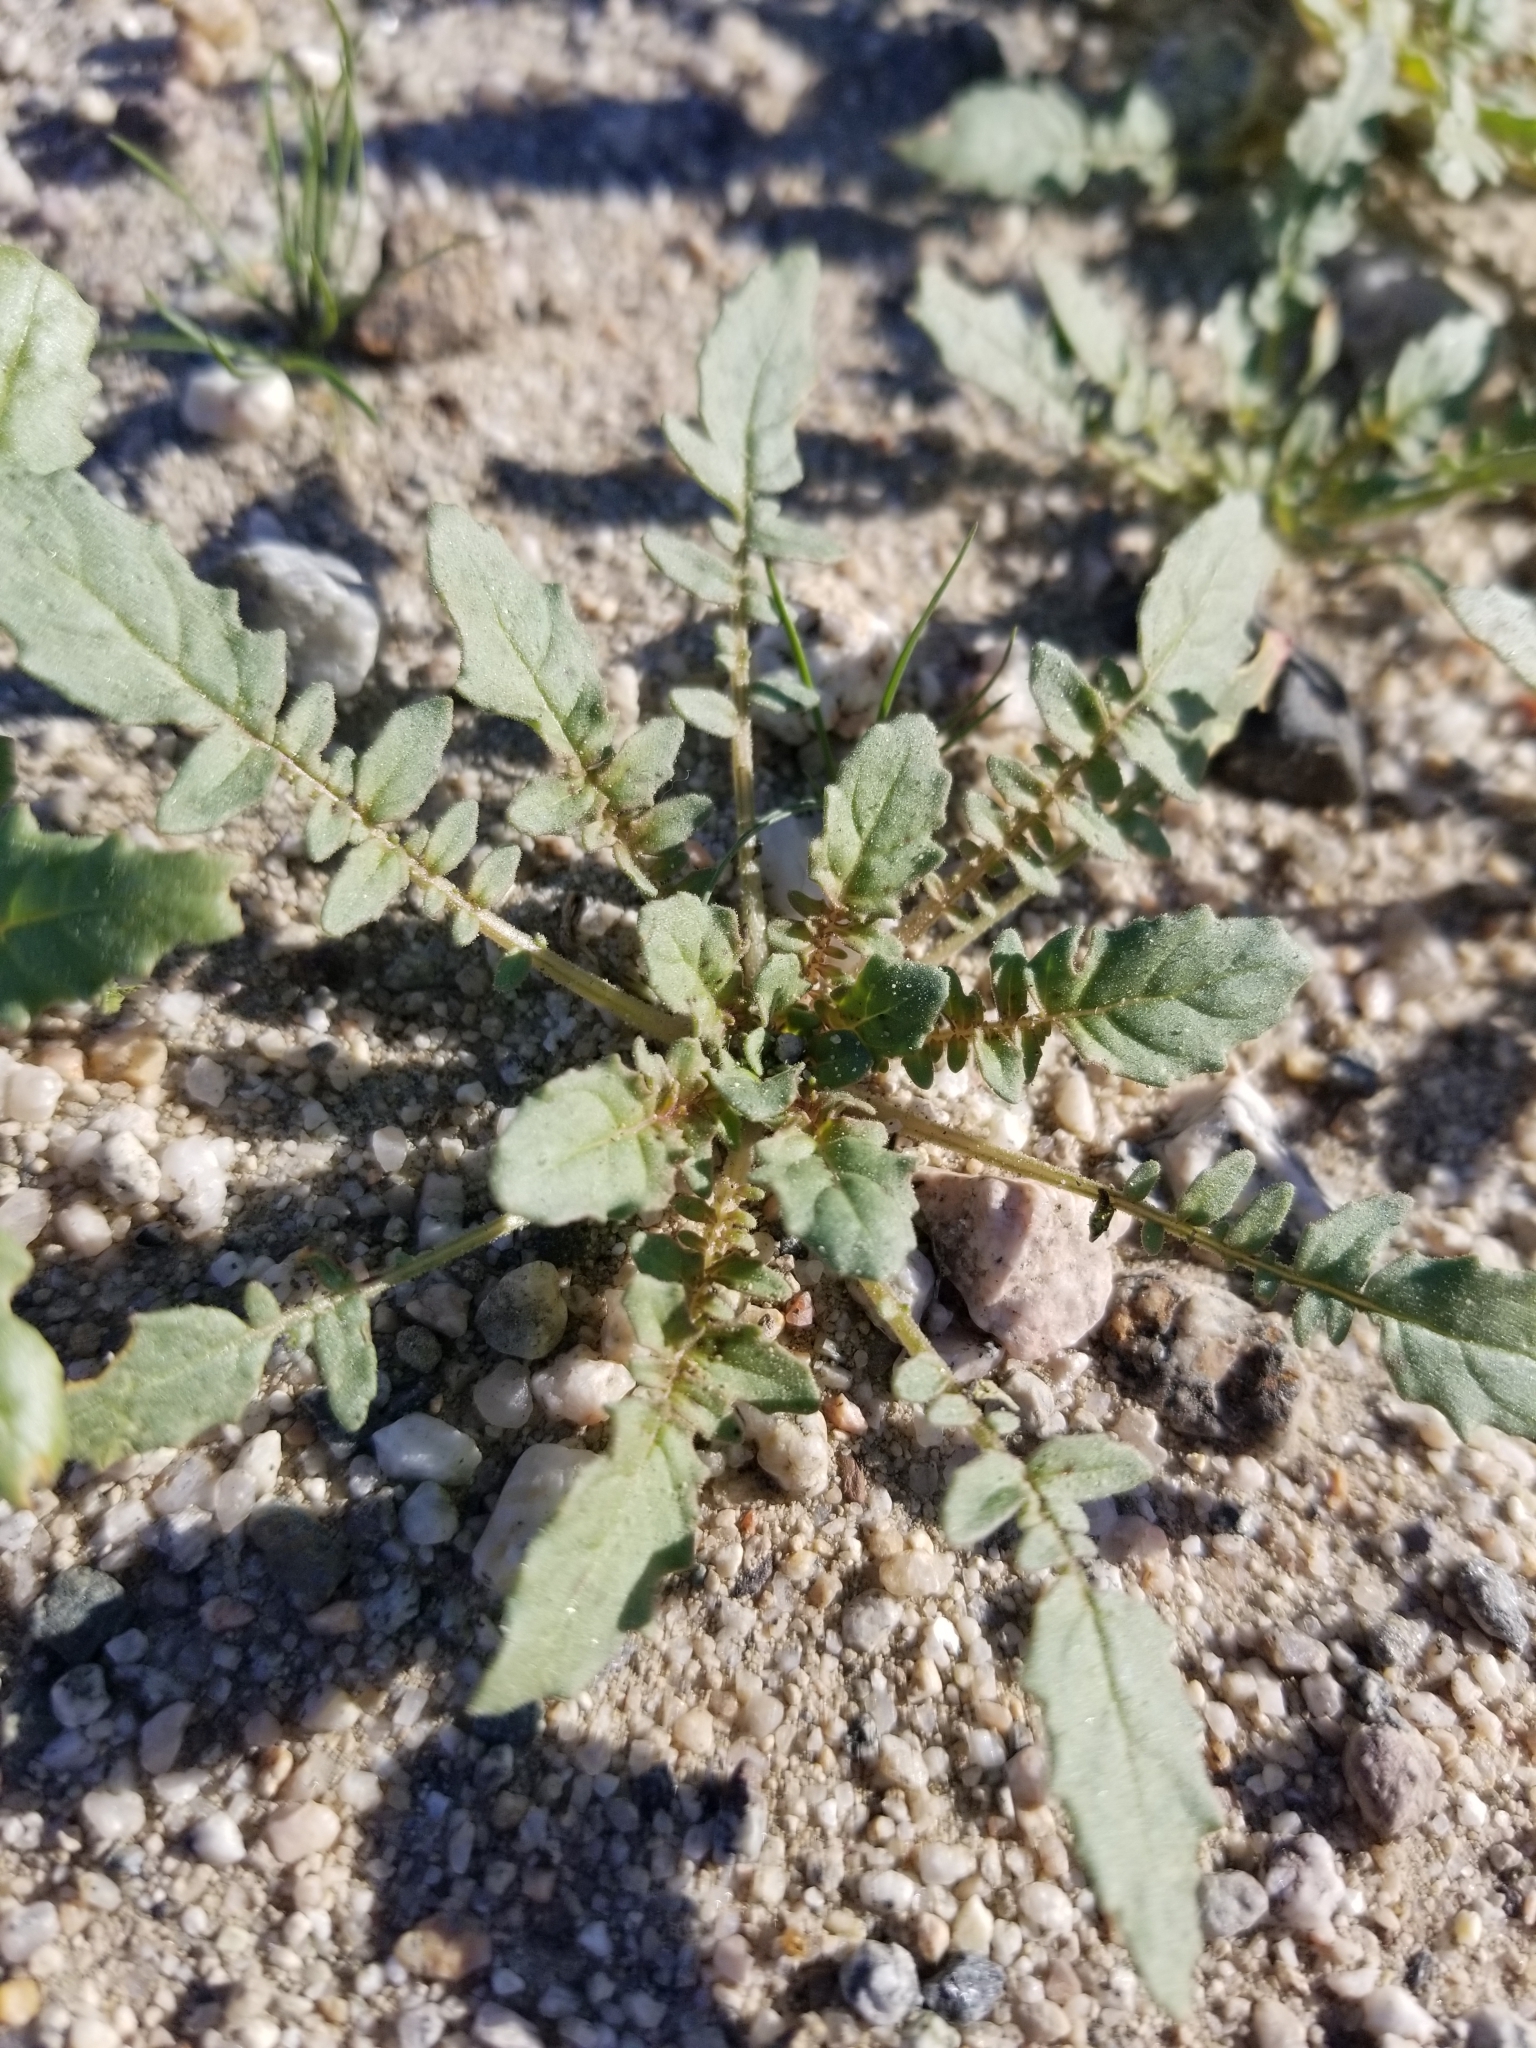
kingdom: Plantae
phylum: Tracheophyta
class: Magnoliopsida
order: Myrtales
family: Onagraceae
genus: Chylismia
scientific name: Chylismia claviformis
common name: Browneyes
